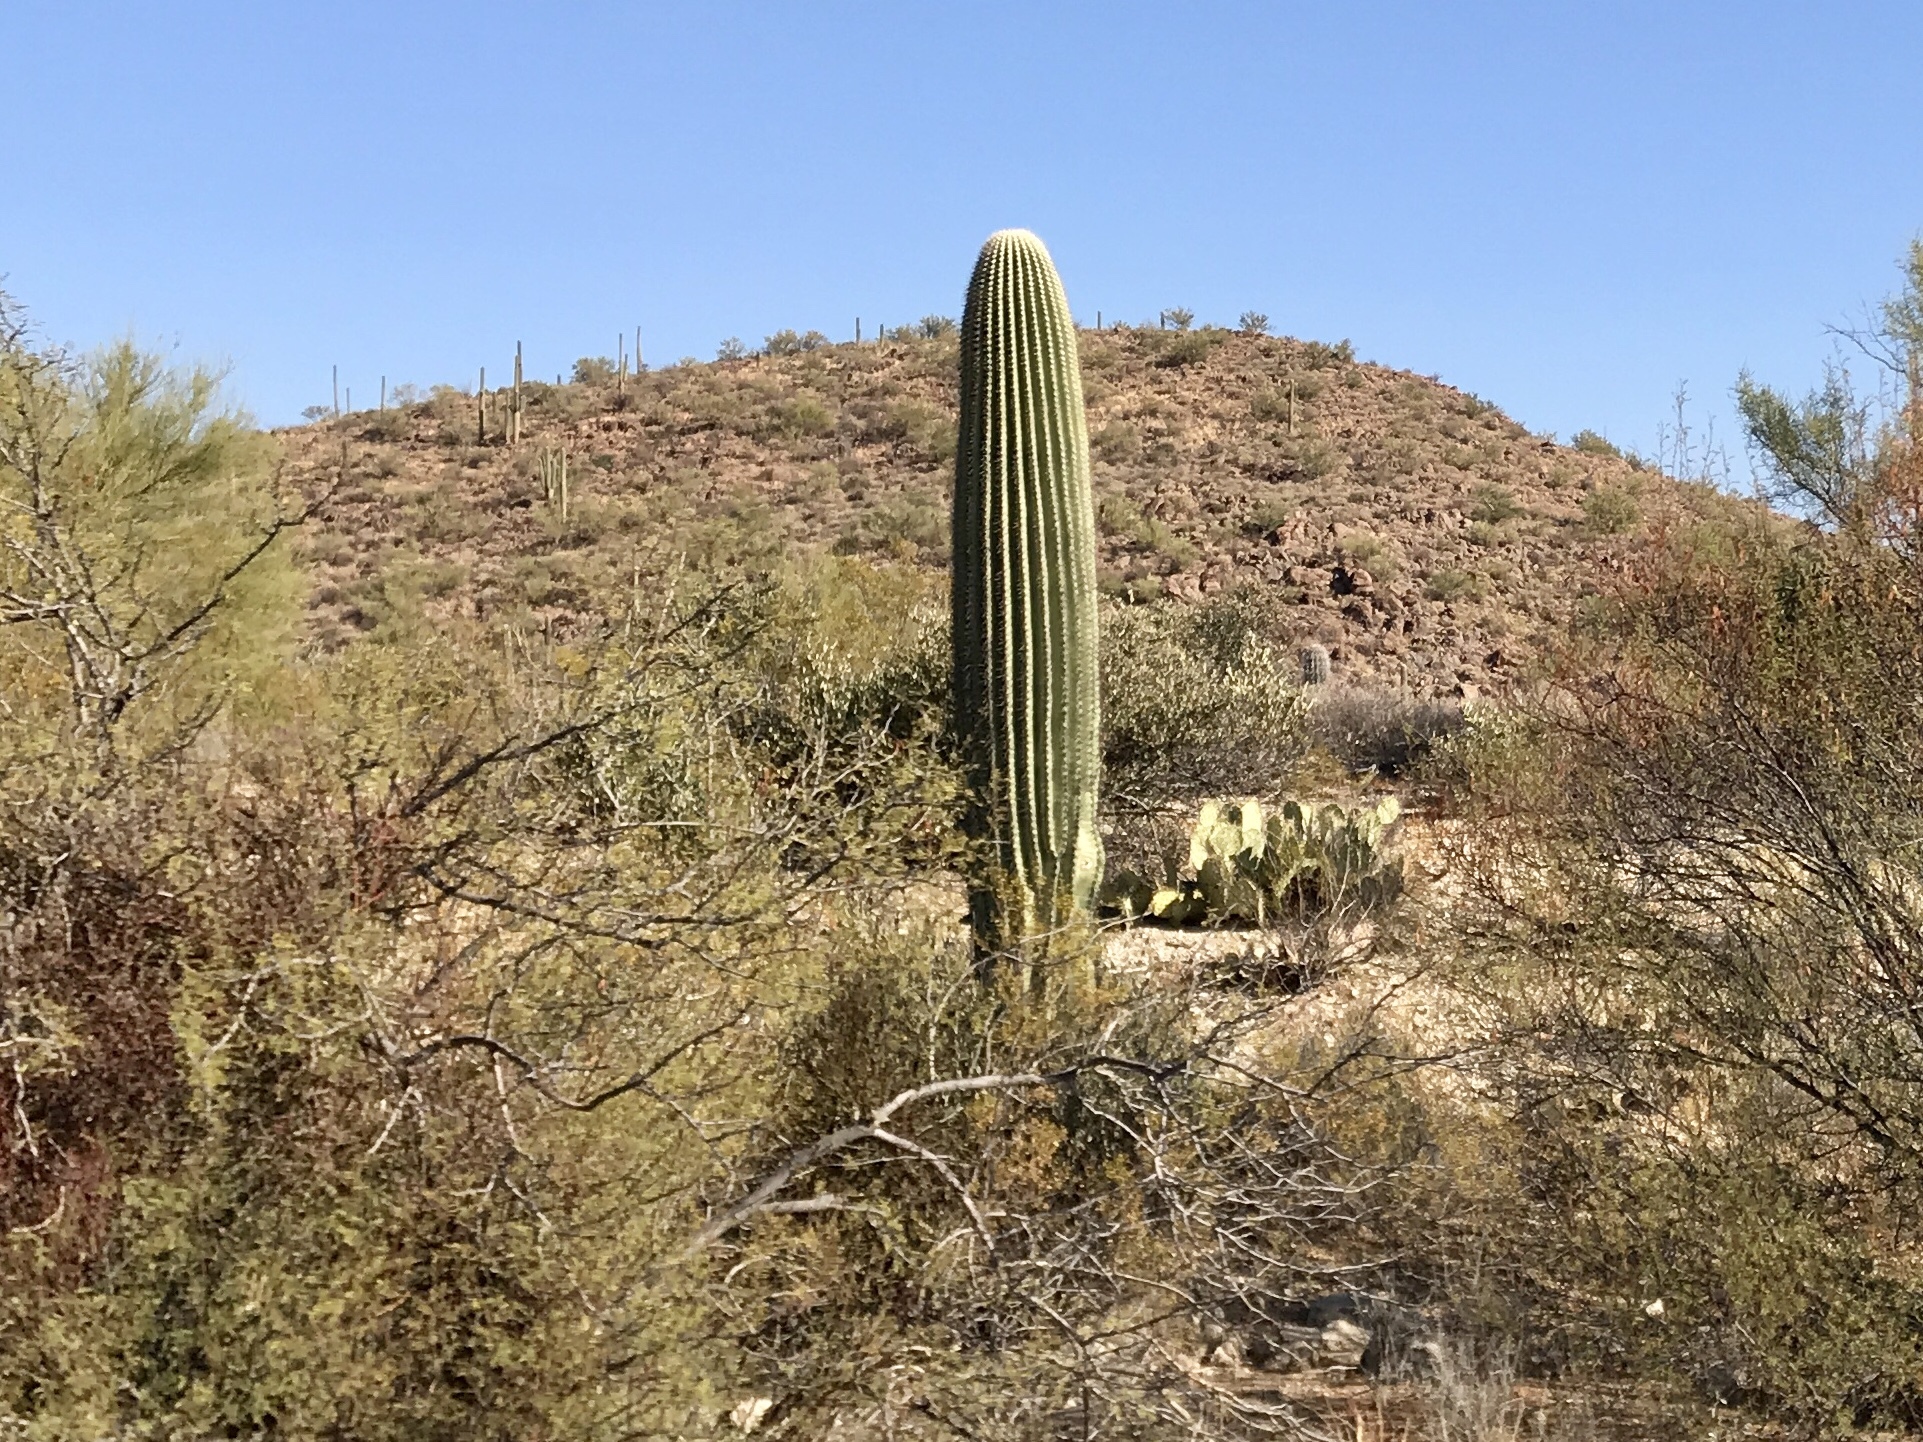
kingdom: Plantae
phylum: Tracheophyta
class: Magnoliopsida
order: Caryophyllales
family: Cactaceae
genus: Carnegiea
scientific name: Carnegiea gigantea
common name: Saguaro
